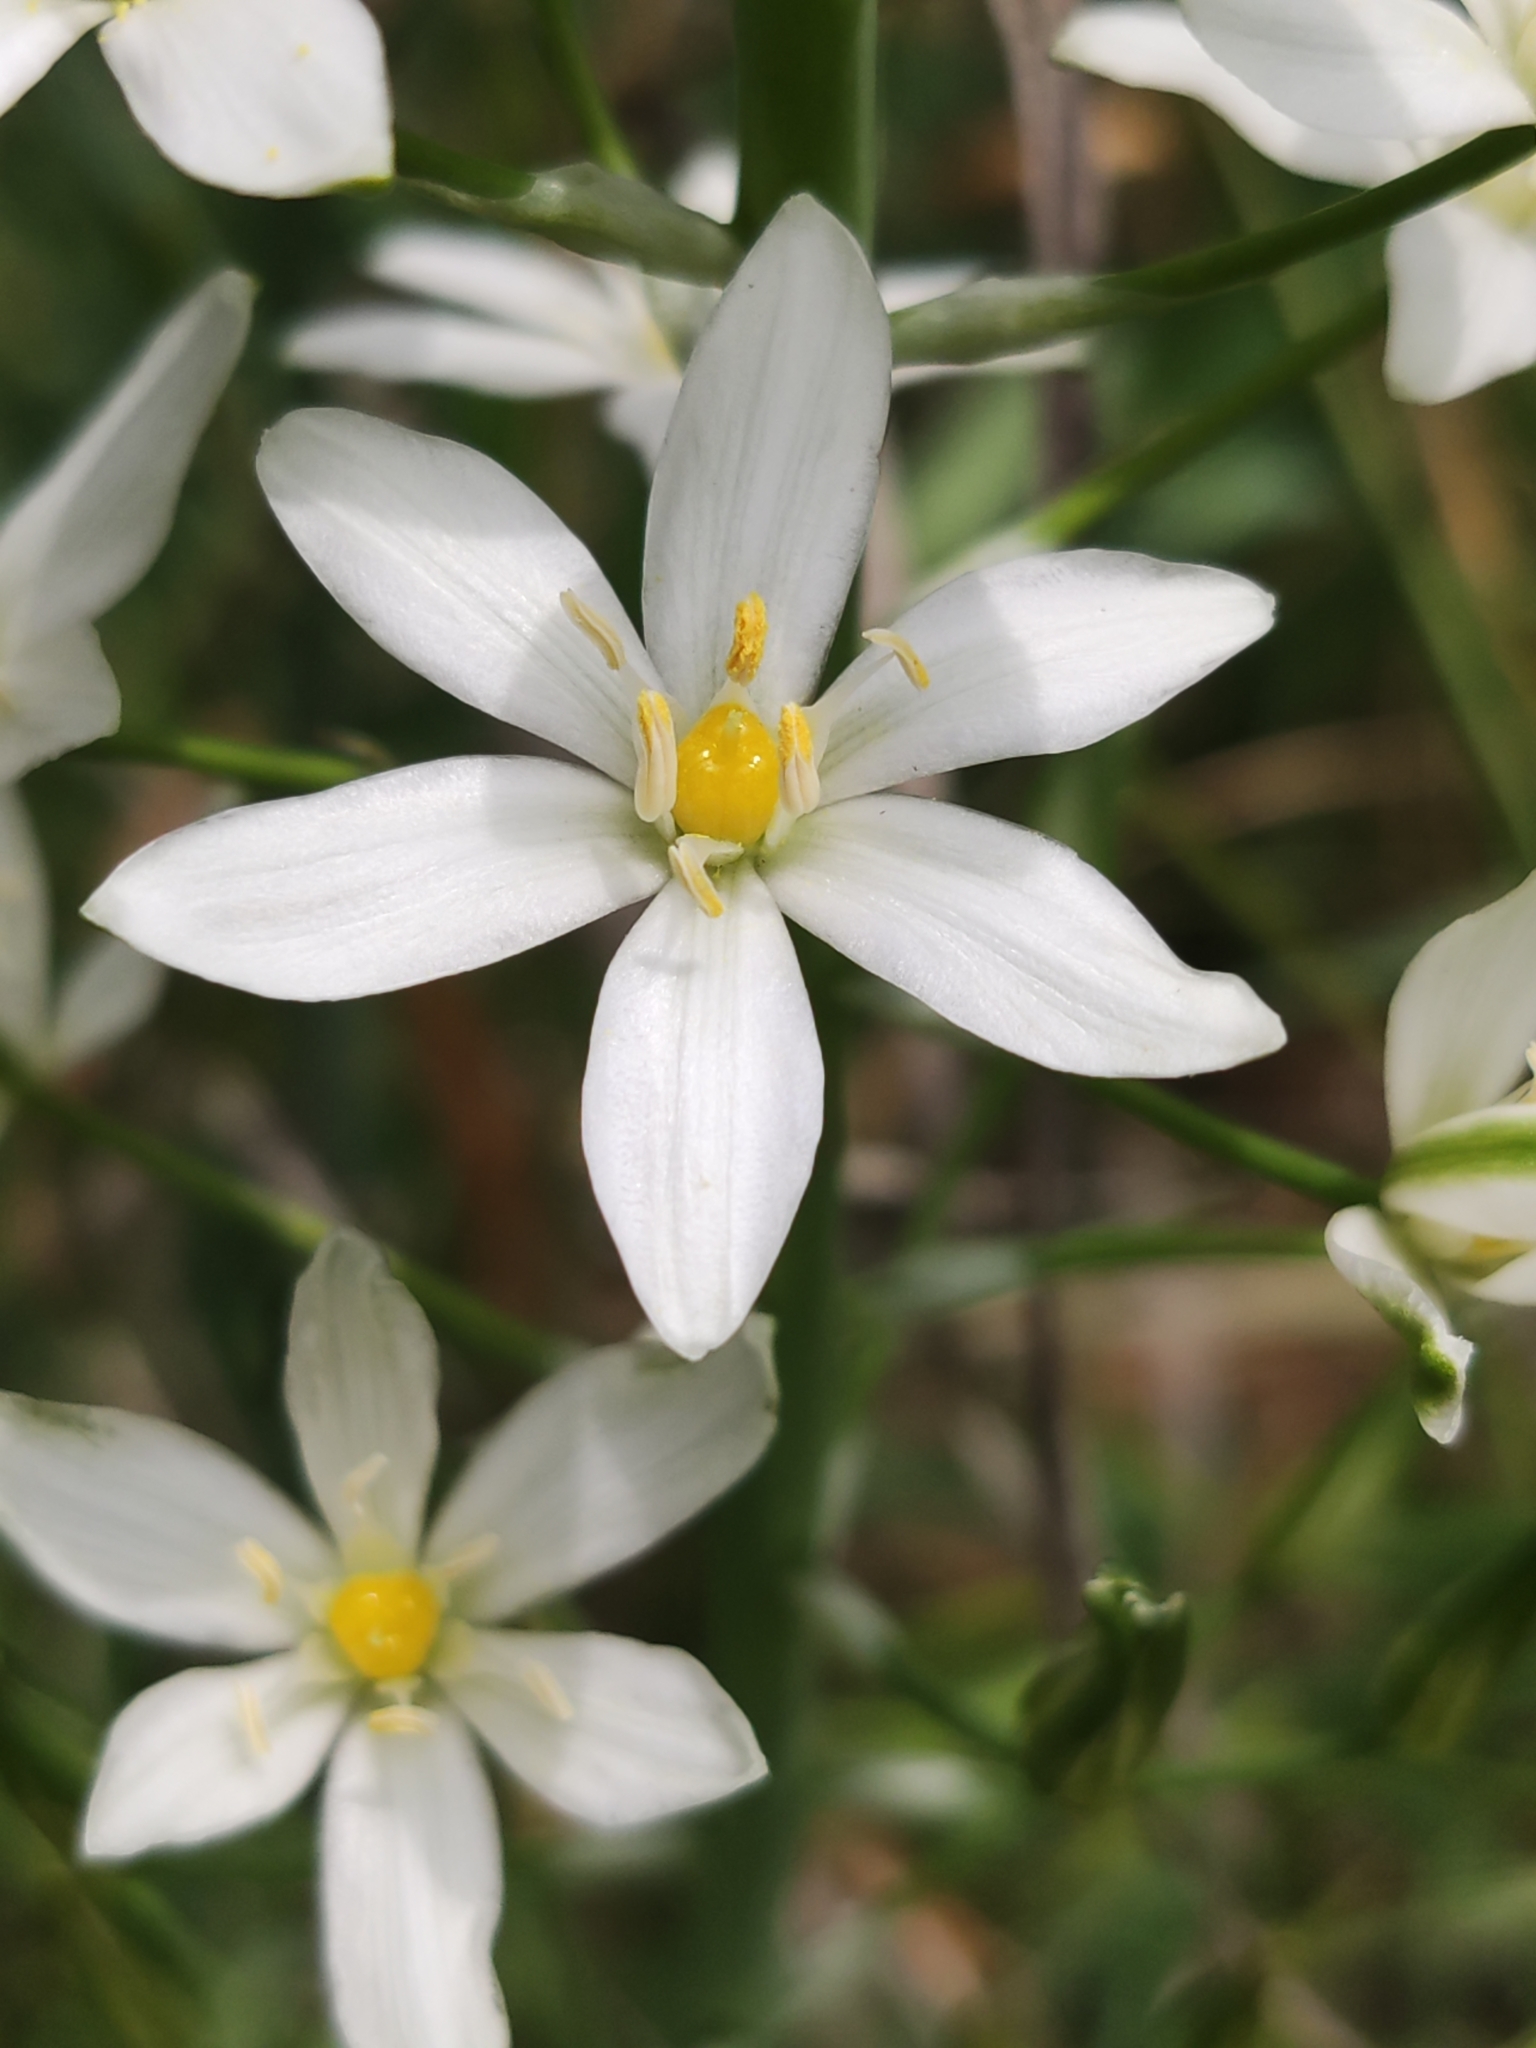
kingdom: Plantae
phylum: Tracheophyta
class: Liliopsida
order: Asparagales
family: Asparagaceae
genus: Ornithogalum
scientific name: Ornithogalum pyramidale
